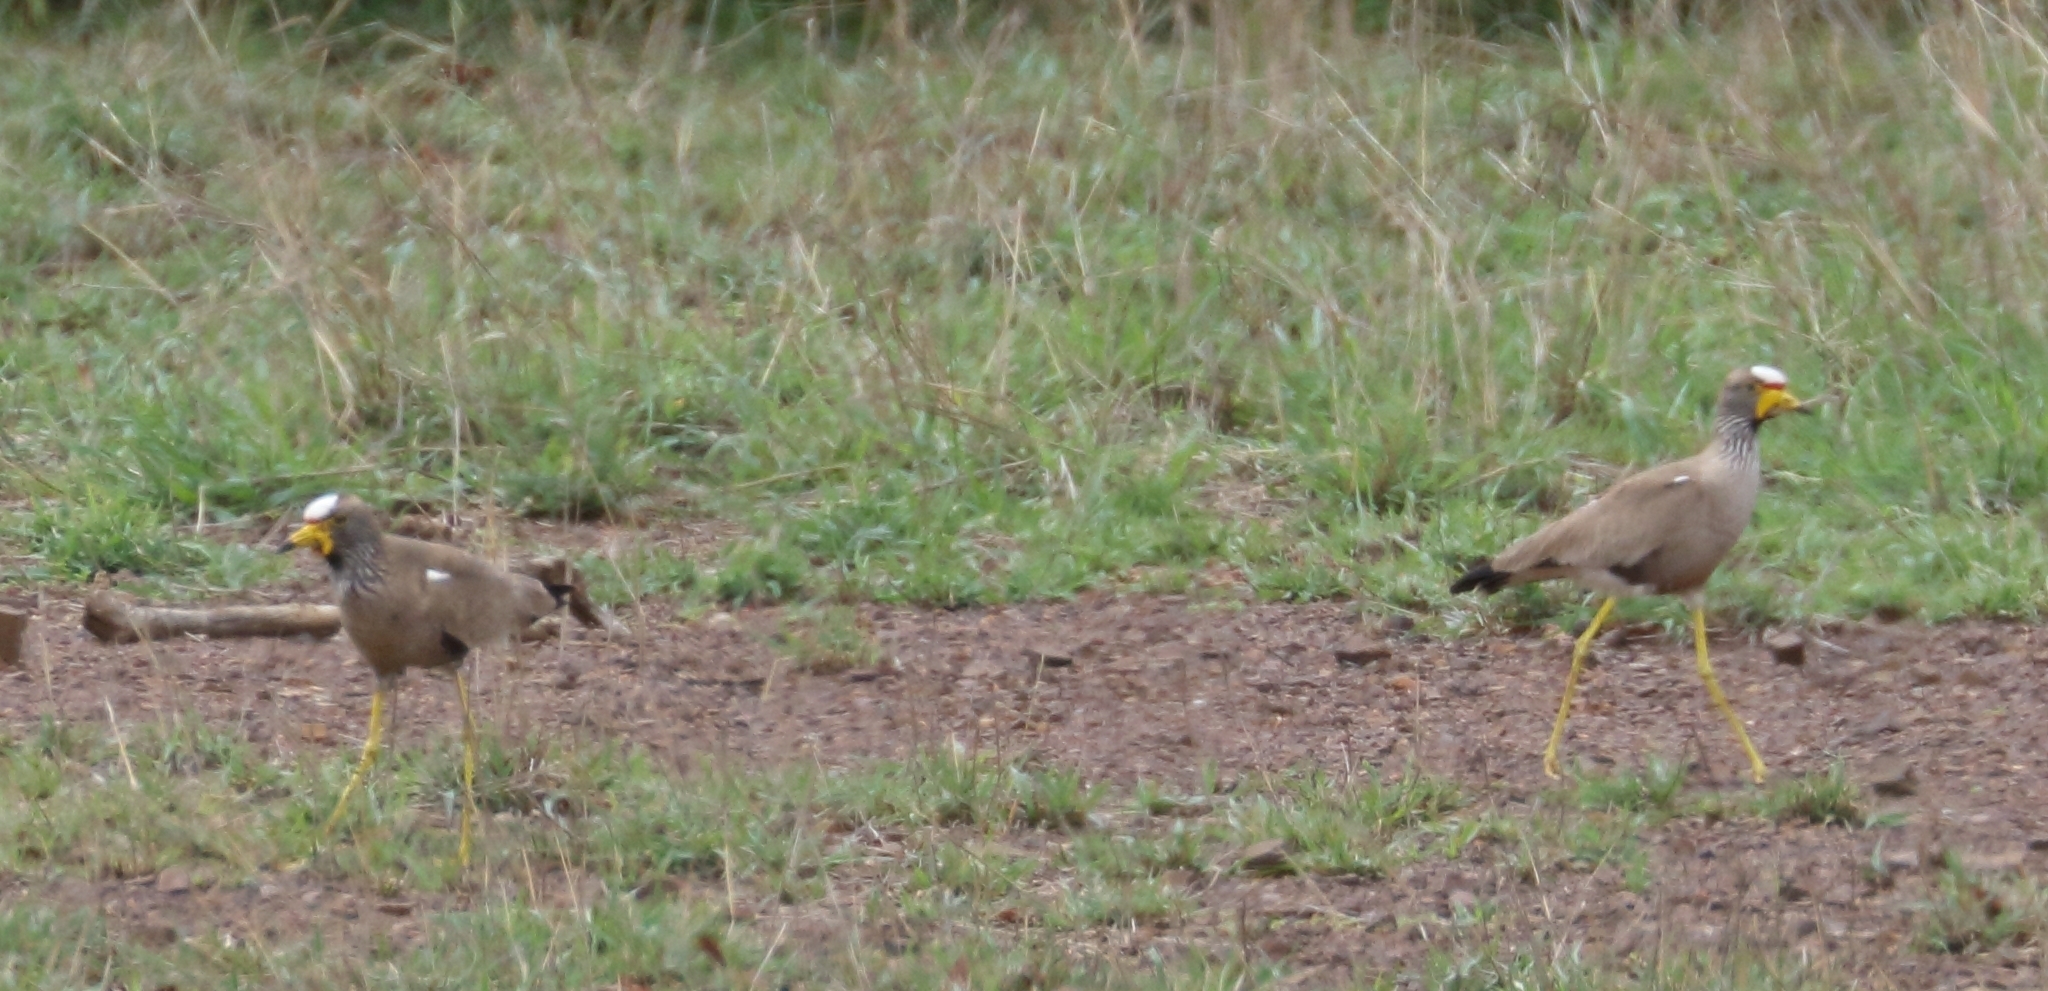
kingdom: Animalia
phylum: Chordata
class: Aves
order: Charadriiformes
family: Charadriidae
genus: Vanellus
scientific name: Vanellus senegallus
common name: African wattled lapwing
